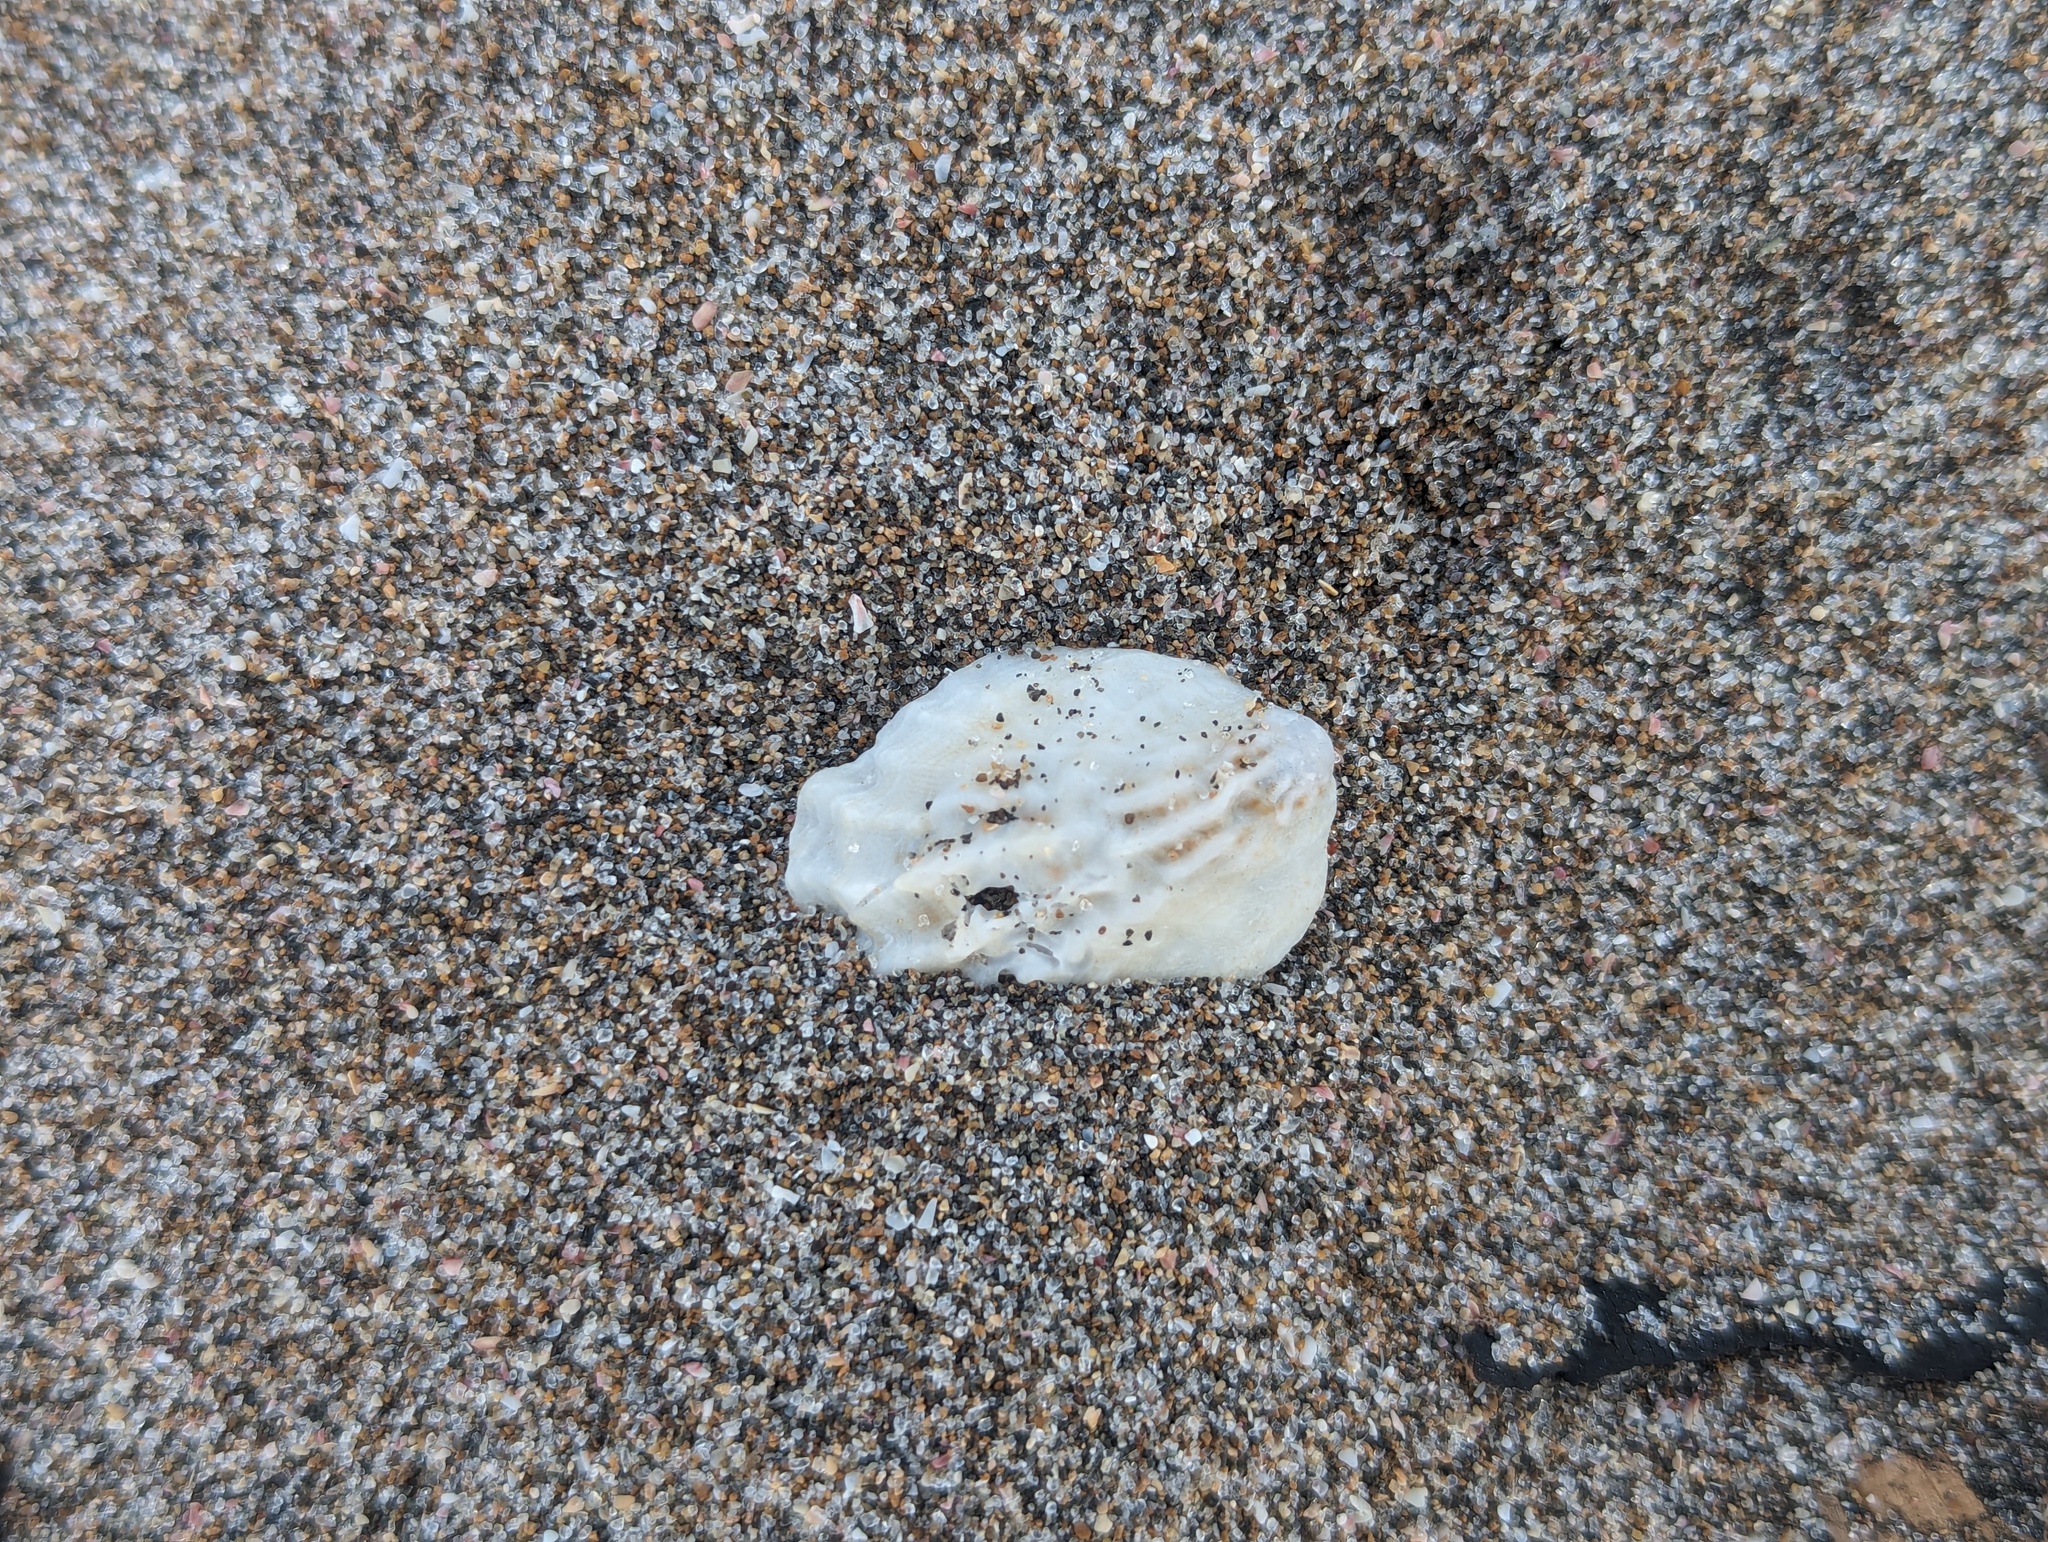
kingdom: Animalia
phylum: Mollusca
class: Gastropoda
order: Littorinimorpha
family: Calyptraeidae
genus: Maoricrypta
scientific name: Maoricrypta costata
